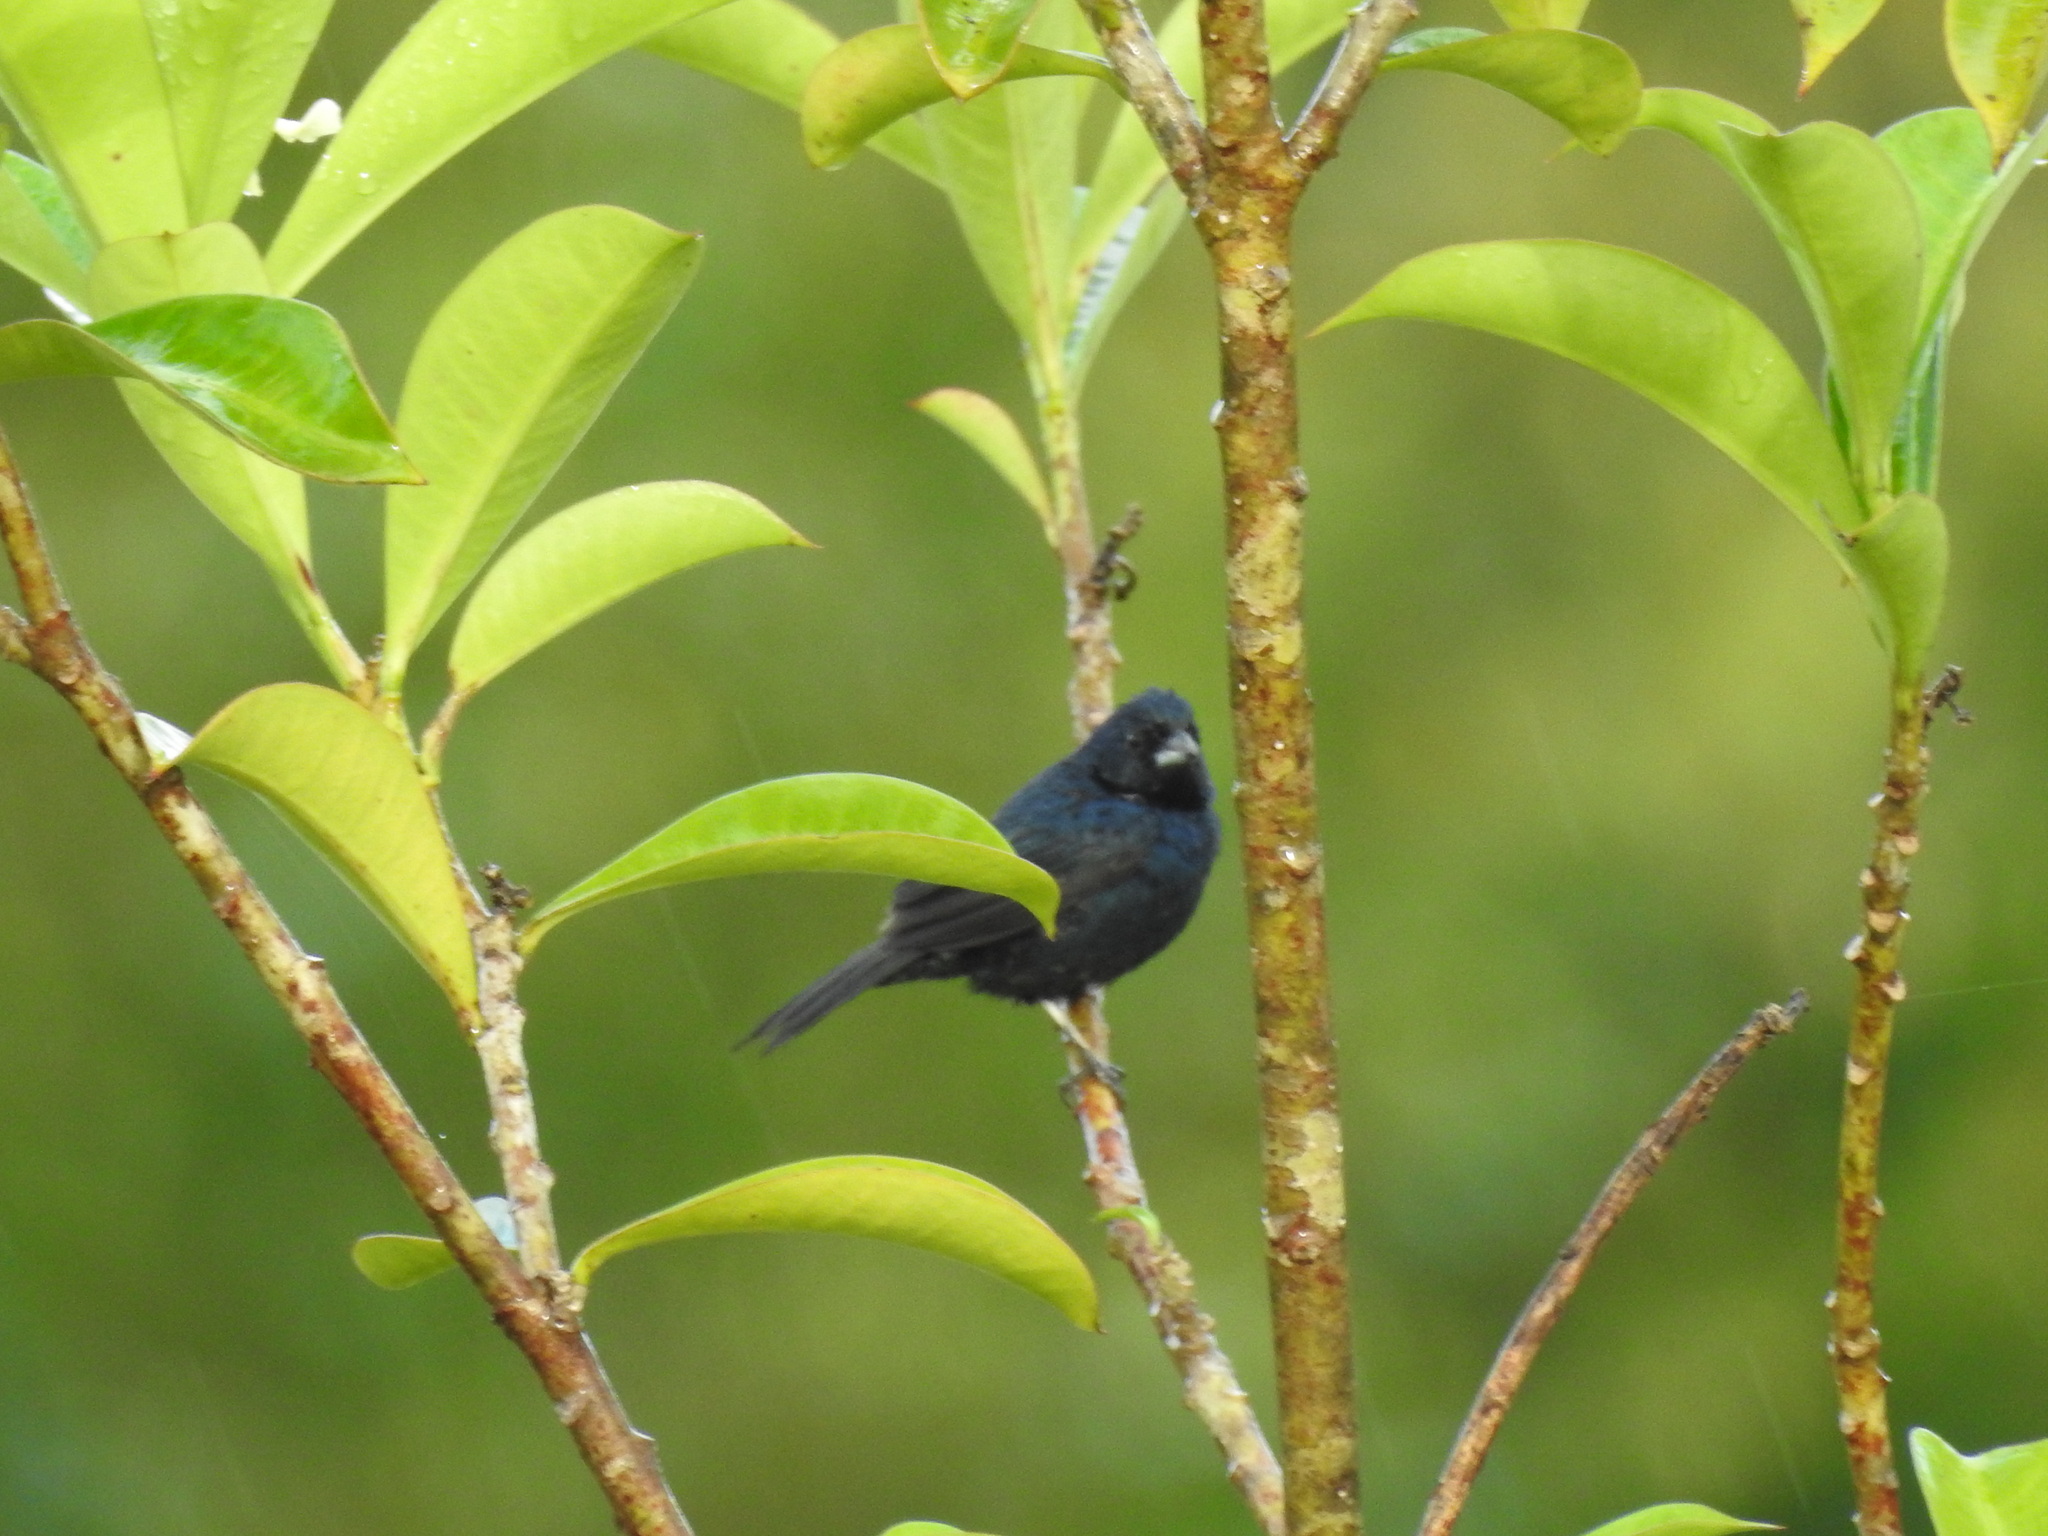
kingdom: Animalia
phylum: Chordata
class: Aves
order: Passeriformes
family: Thraupidae
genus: Volatinia
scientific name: Volatinia jacarina
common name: Blue-black grassquit
